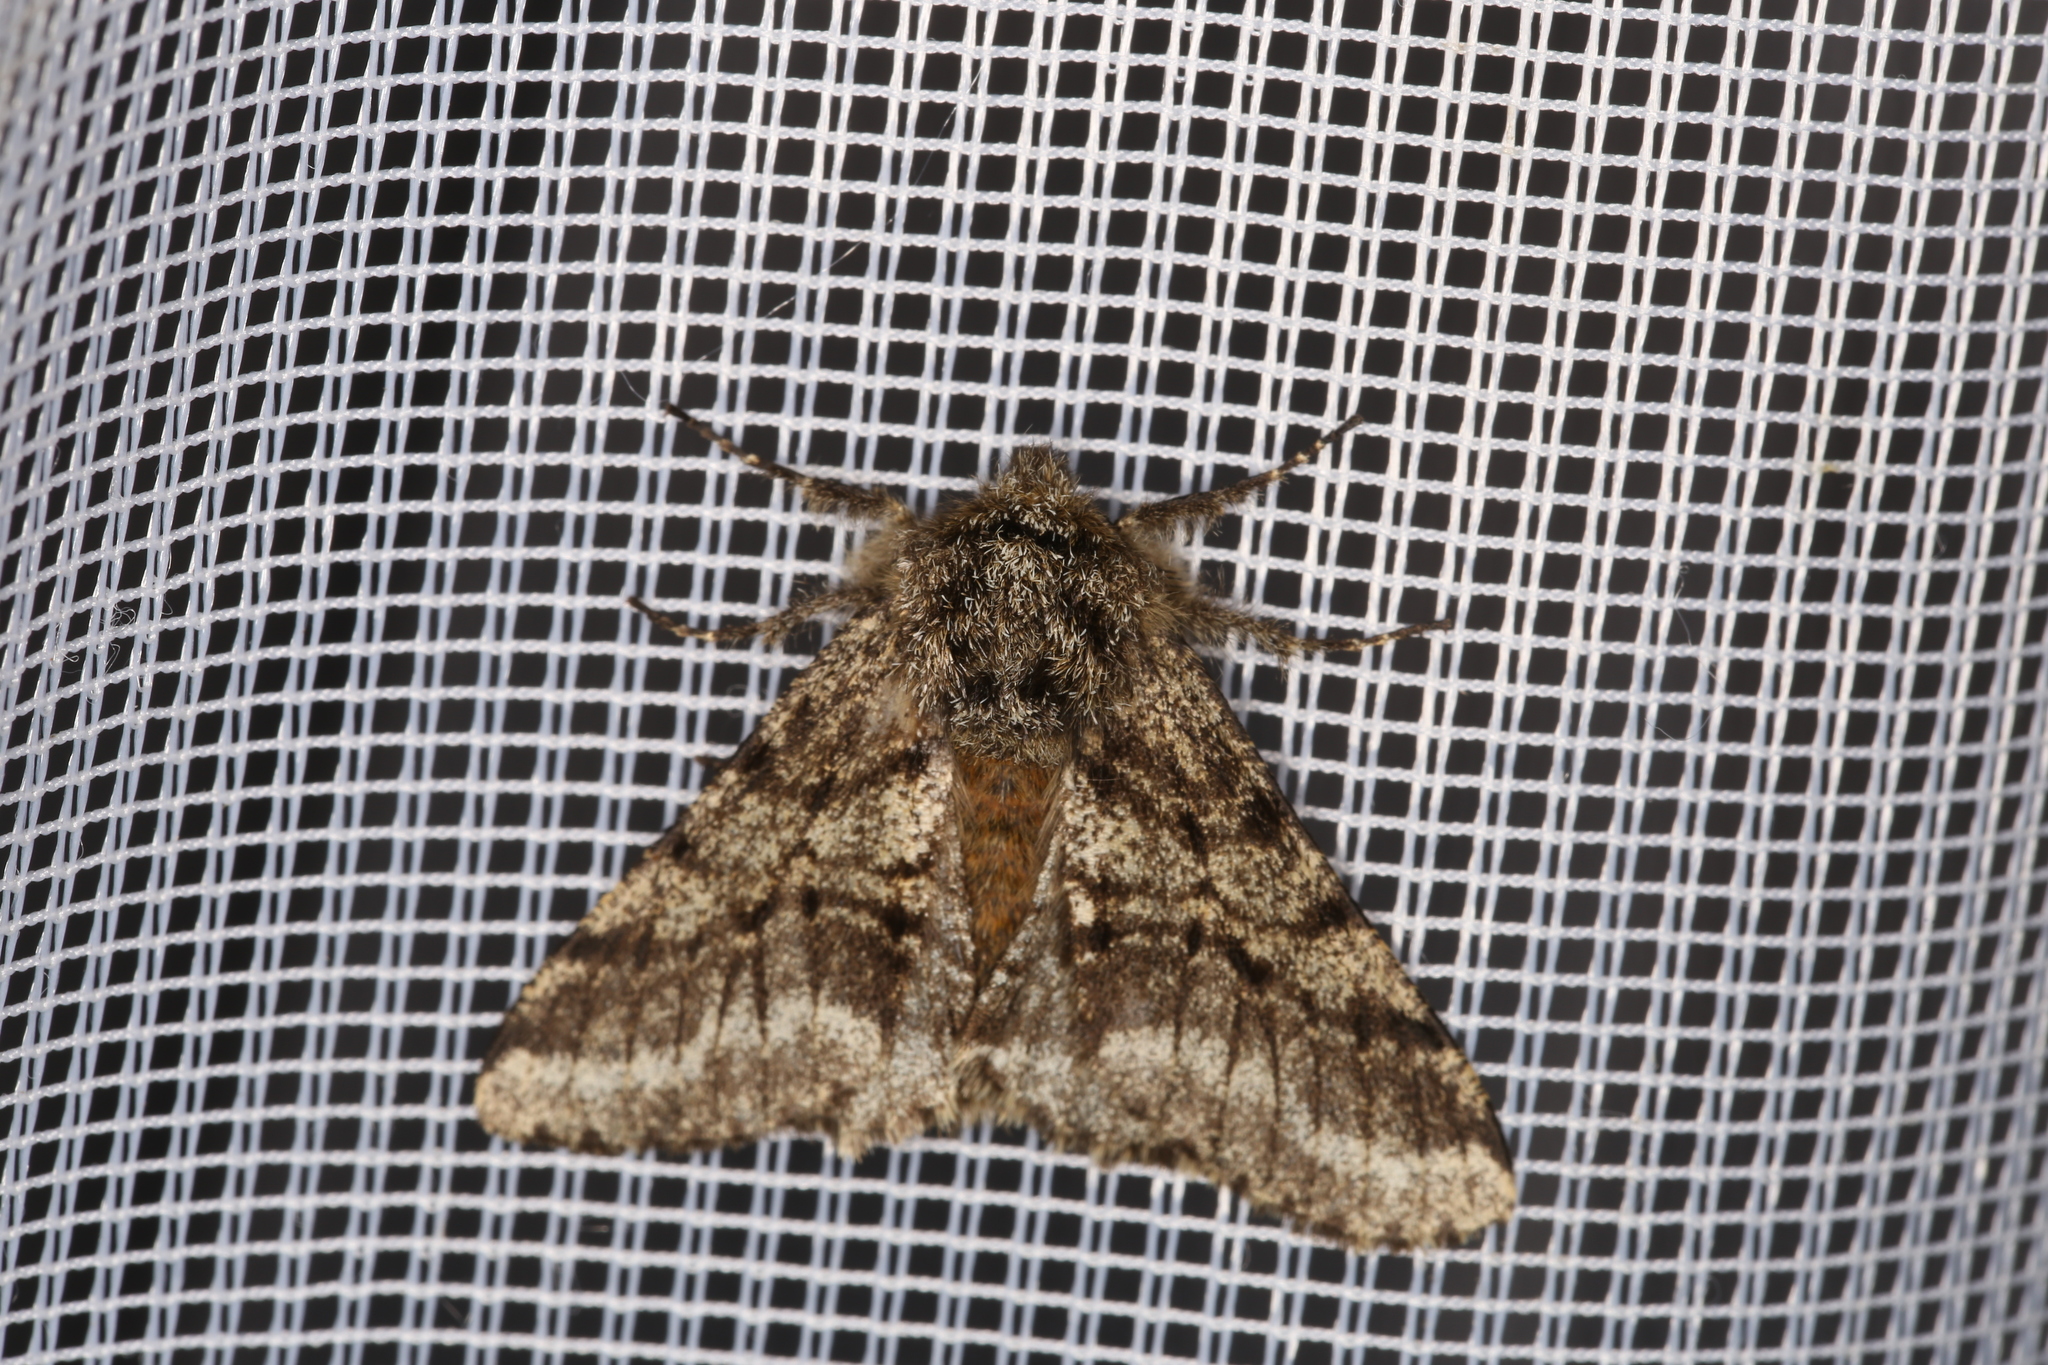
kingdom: Animalia
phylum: Arthropoda
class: Insecta
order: Lepidoptera
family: Geometridae
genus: Lycia
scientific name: Lycia hirtaria
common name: Brindled beauty
